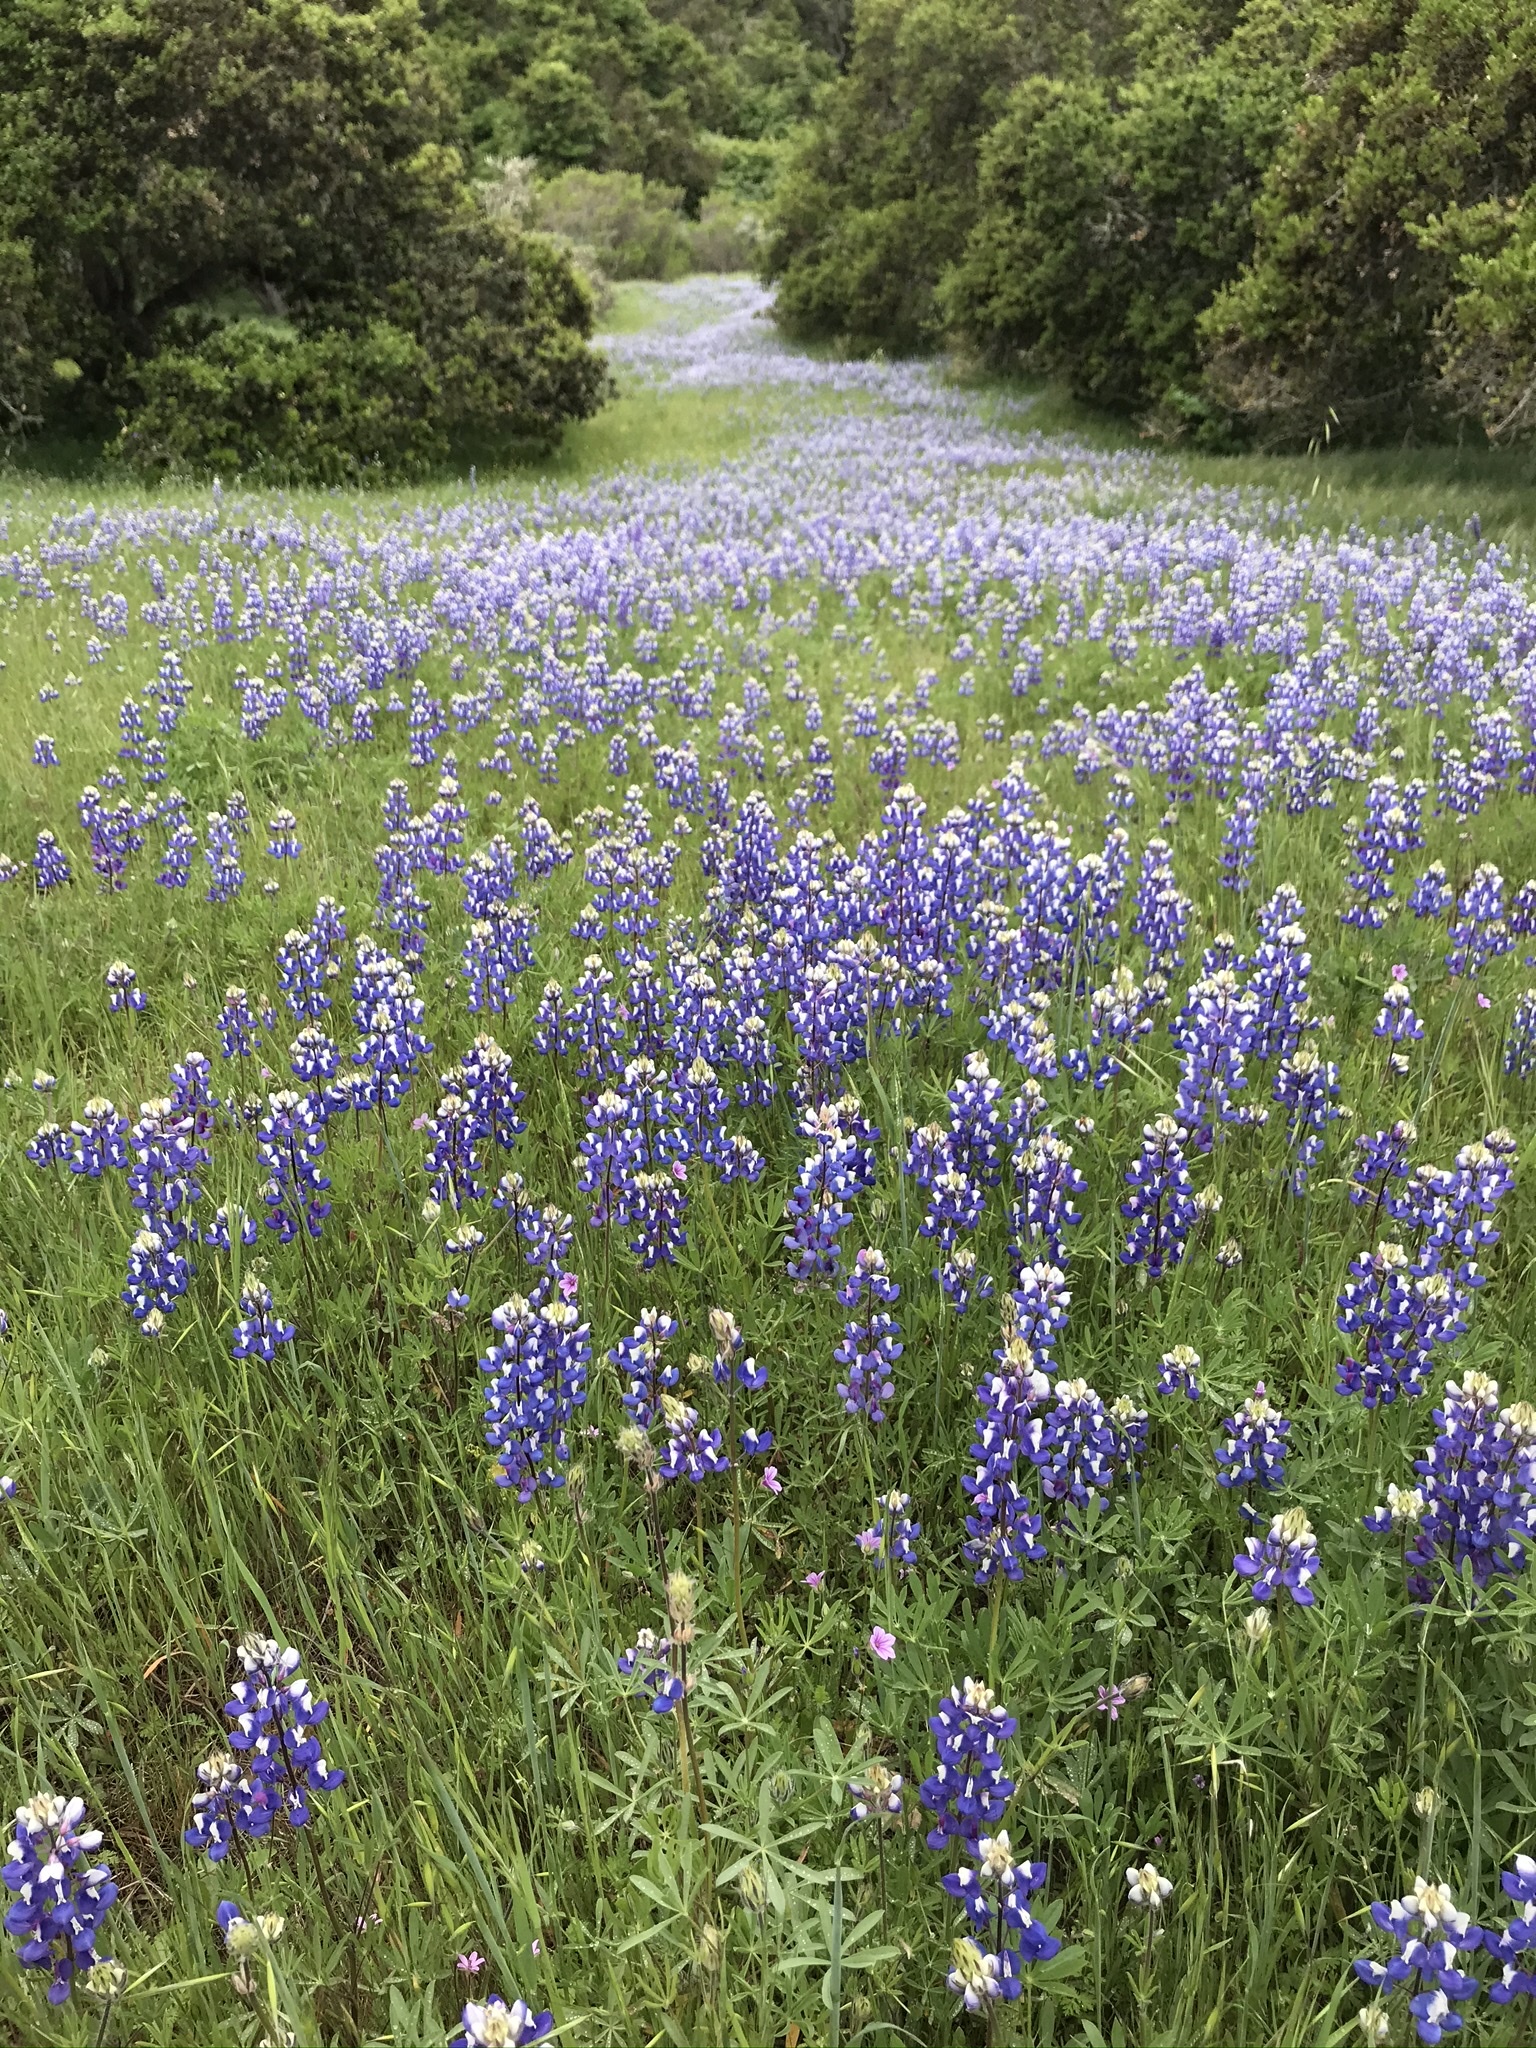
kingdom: Plantae
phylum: Tracheophyta
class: Magnoliopsida
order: Fabales
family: Fabaceae
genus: Lupinus
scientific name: Lupinus nanus
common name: Orean blue lupin
